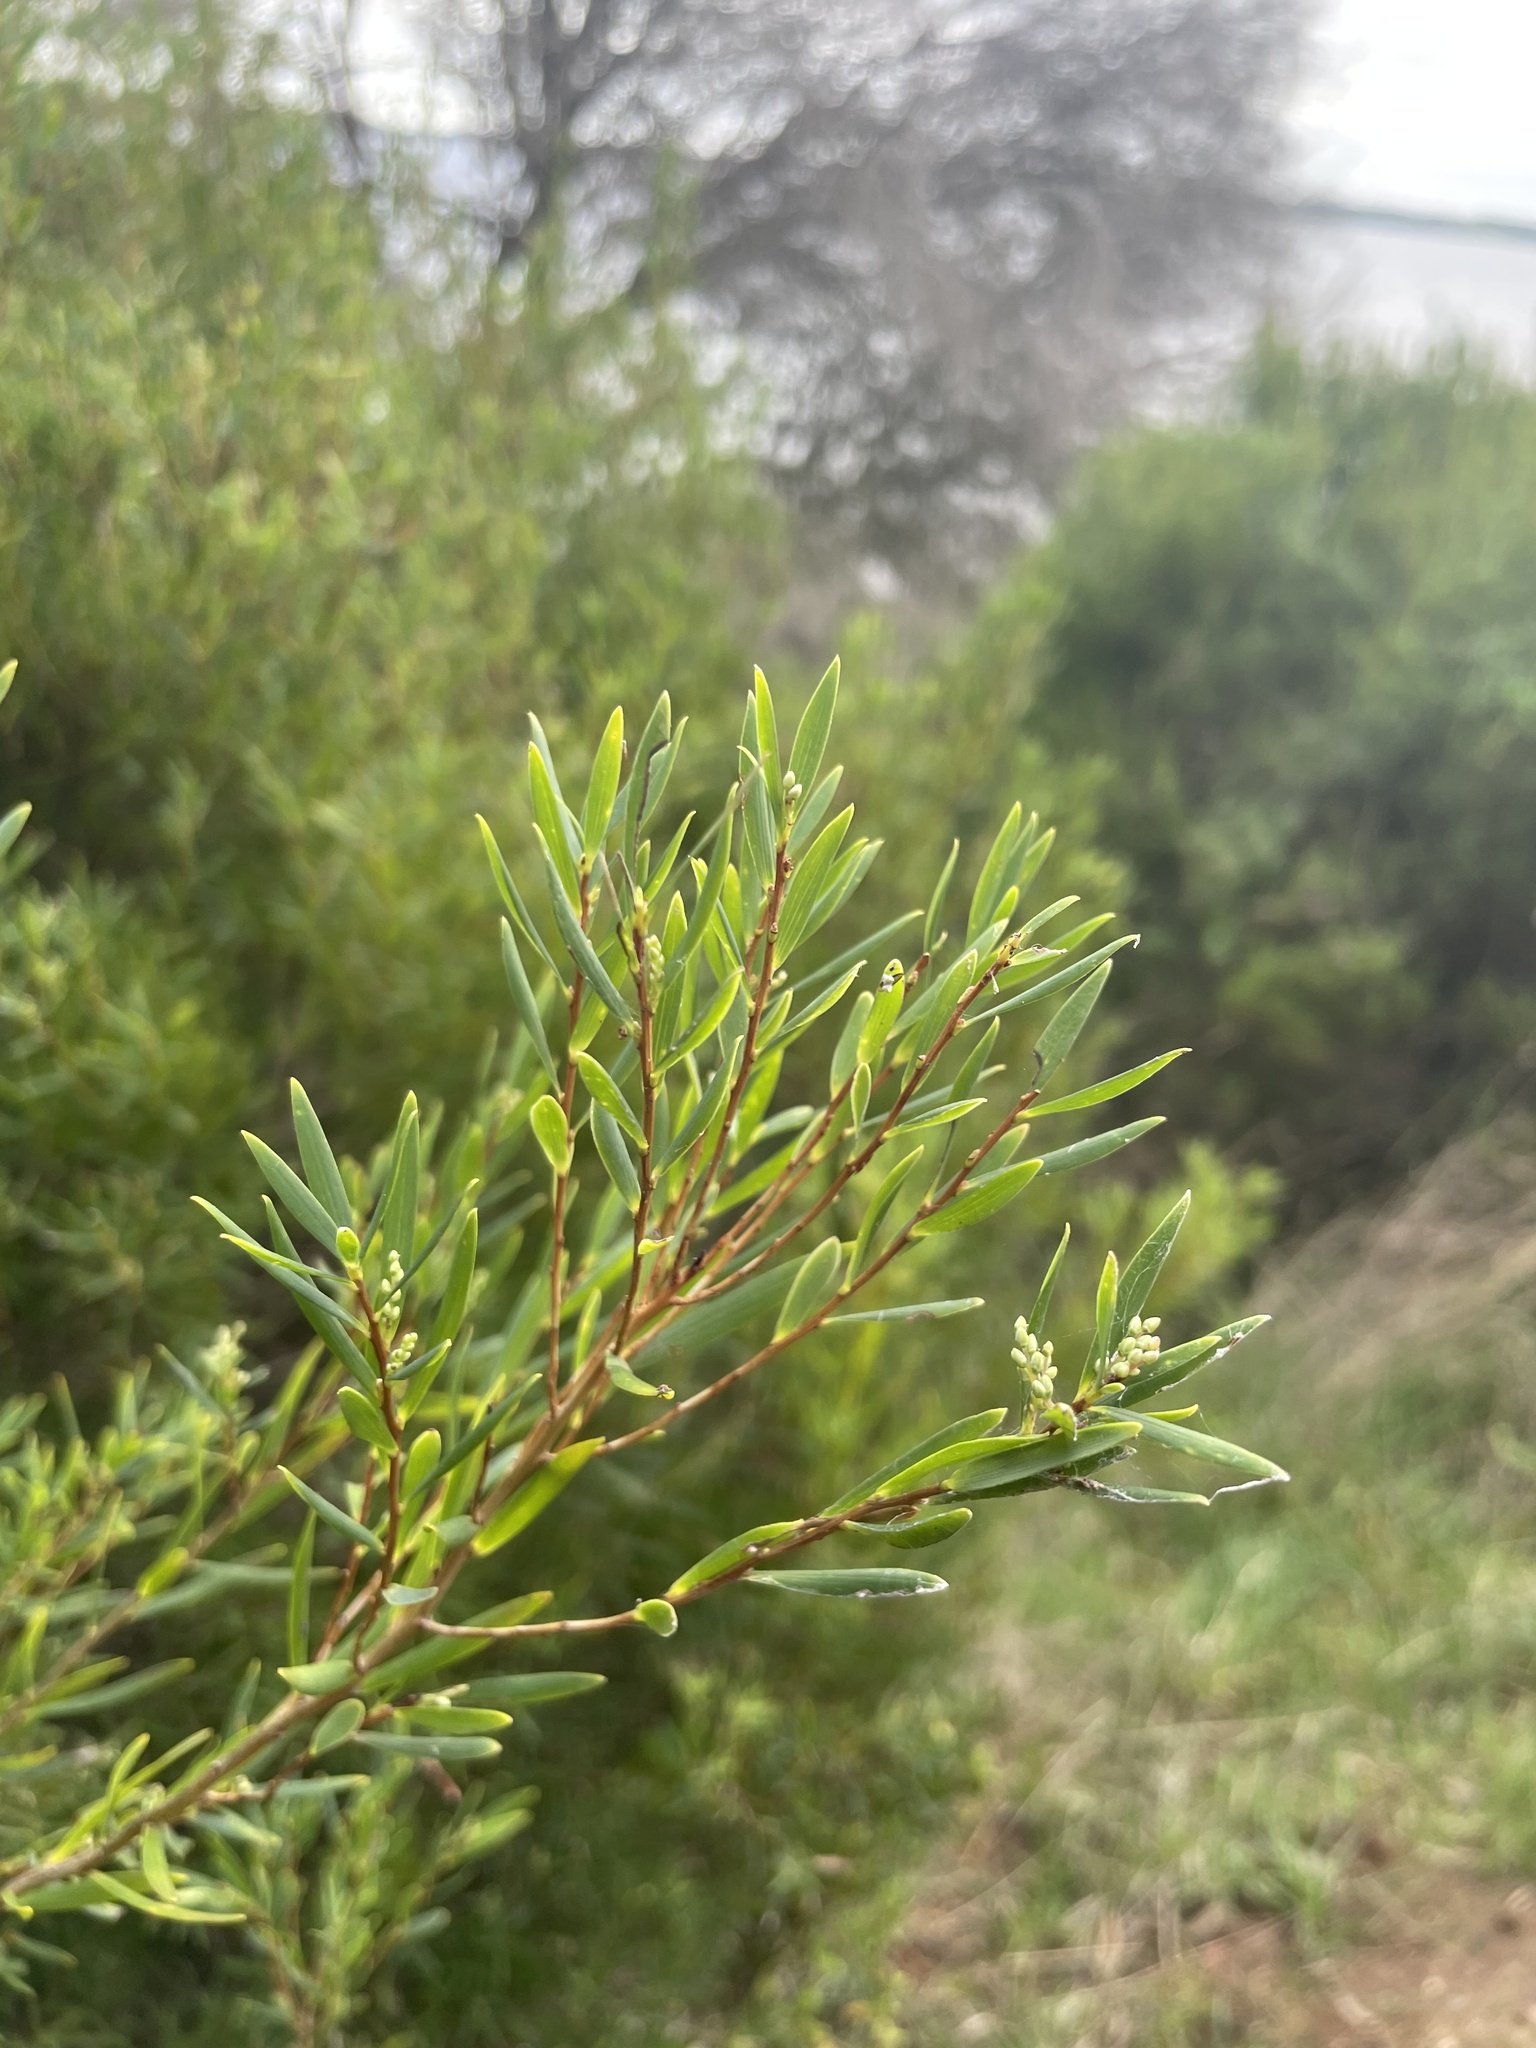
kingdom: Plantae
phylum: Tracheophyta
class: Magnoliopsida
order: Ericales
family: Ericaceae
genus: Leptecophylla
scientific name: Leptecophylla parvifolia
